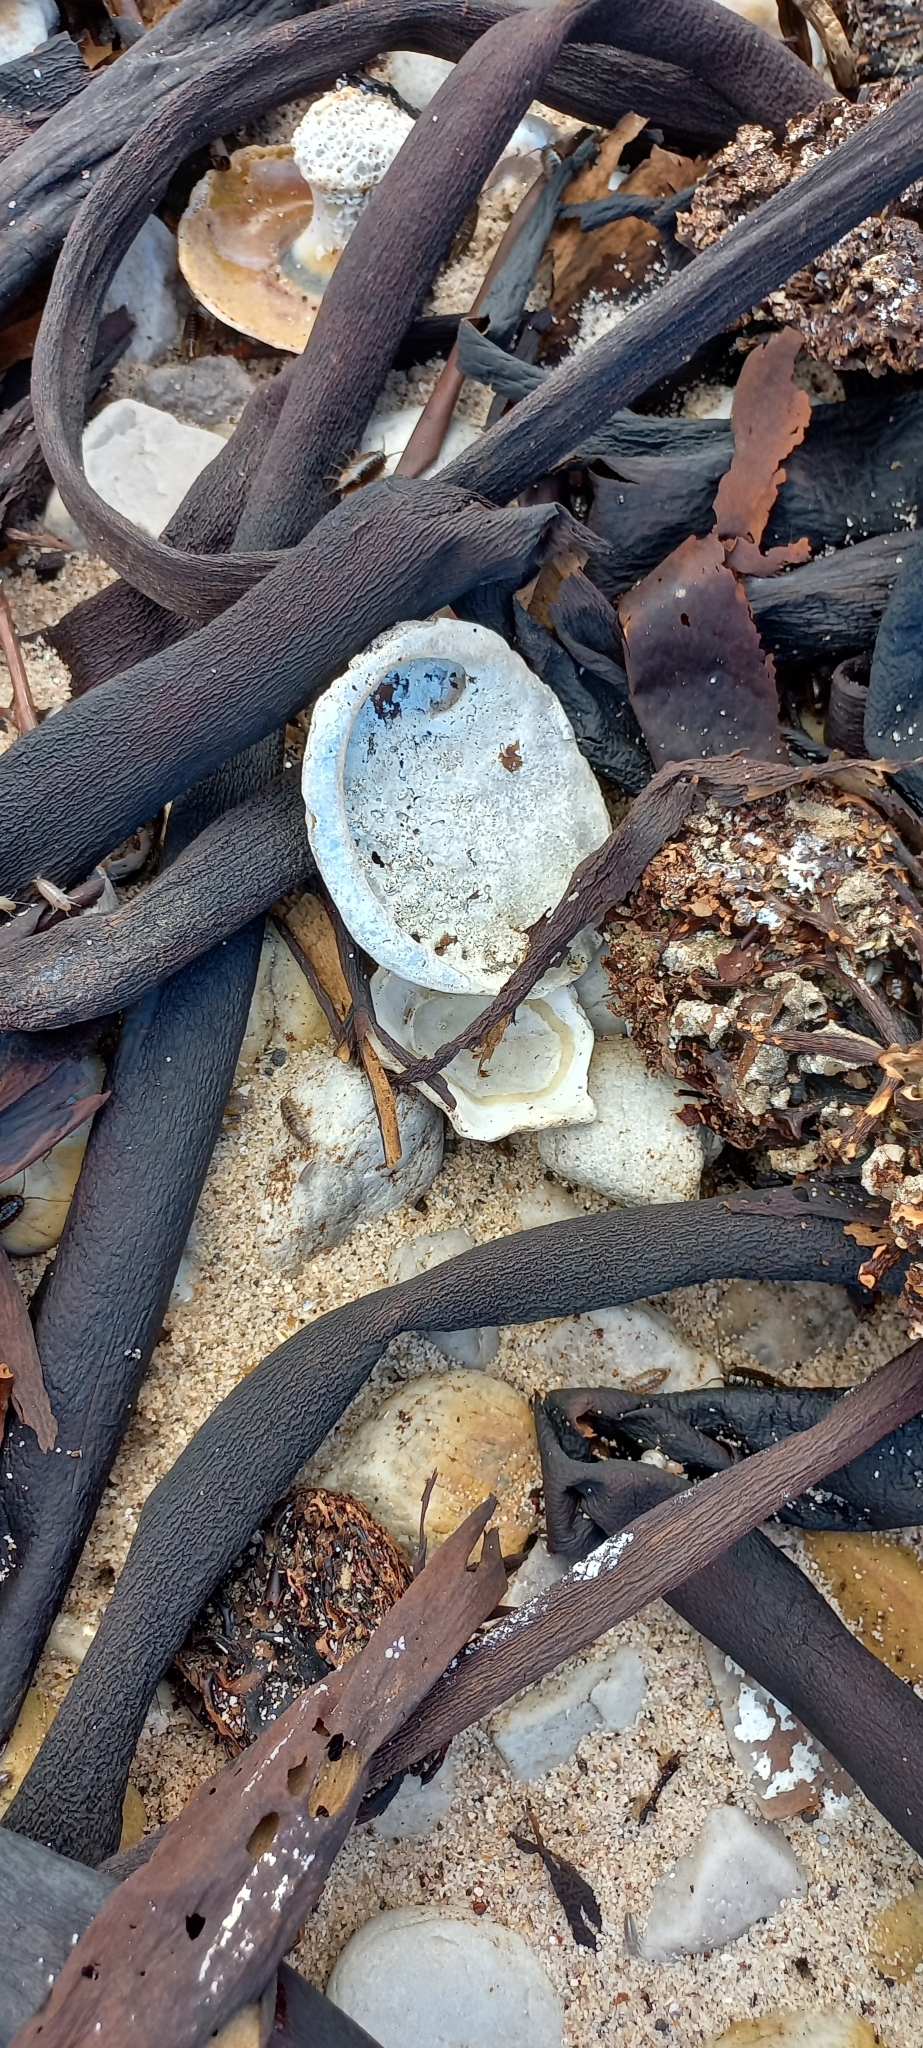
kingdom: Chromista
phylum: Ochrophyta
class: Phaeophyceae
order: Laminariales
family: Lessoniaceae
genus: Ecklonia
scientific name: Ecklonia
